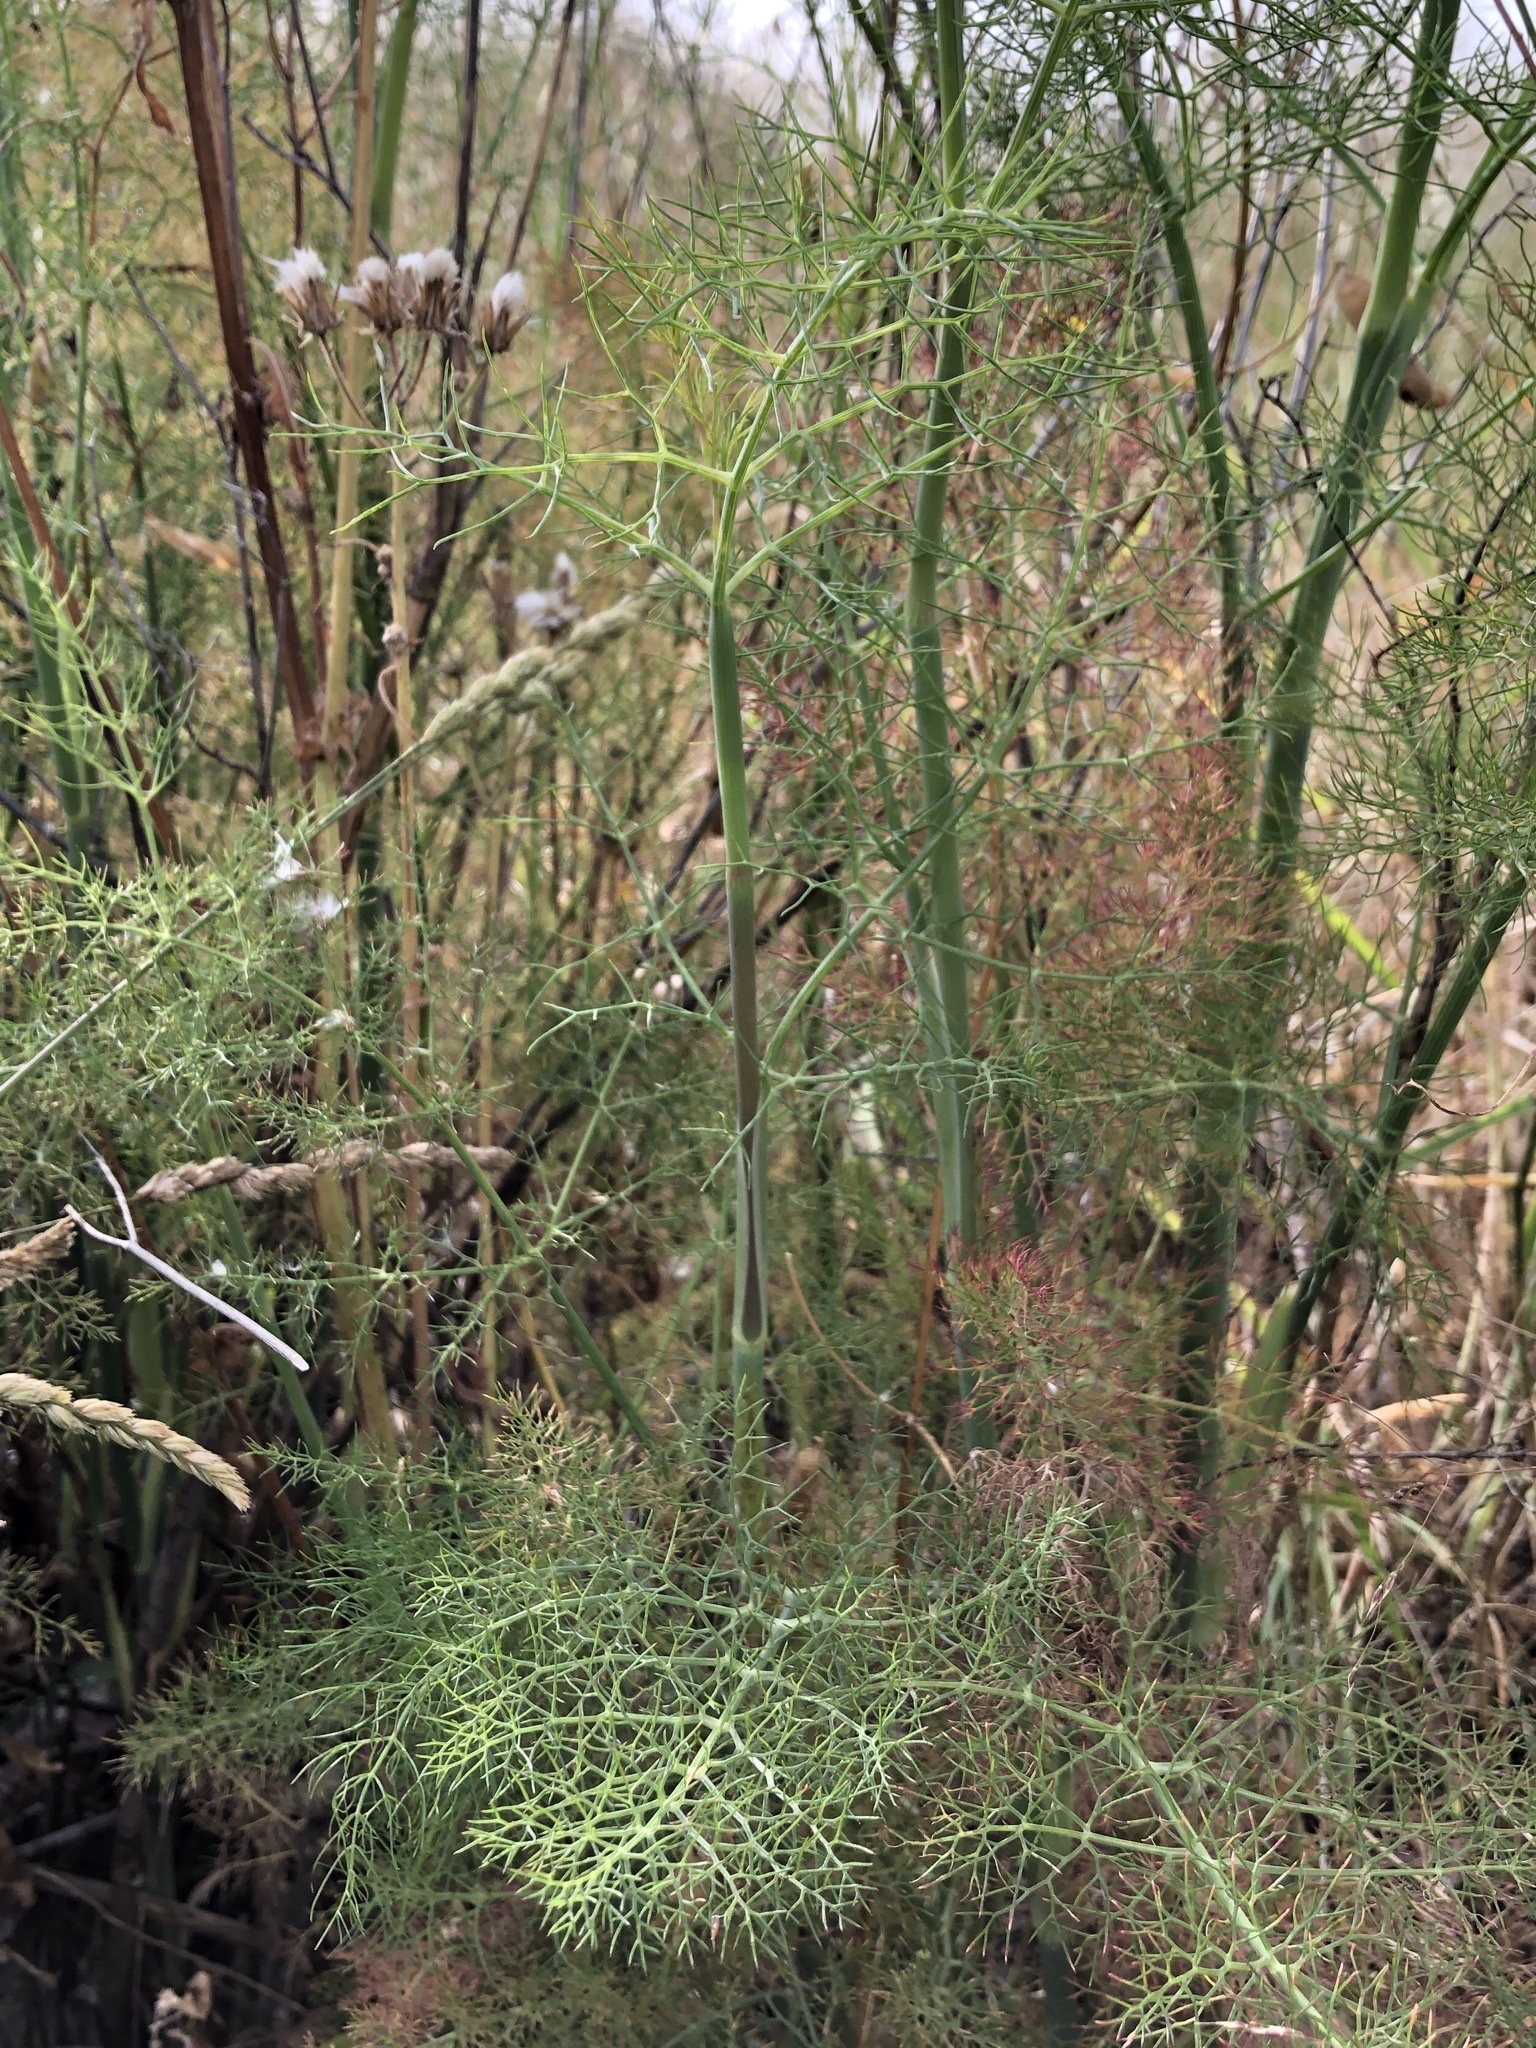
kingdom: Plantae
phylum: Tracheophyta
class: Magnoliopsida
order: Apiales
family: Apiaceae
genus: Foeniculum
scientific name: Foeniculum vulgare
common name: Fennel
